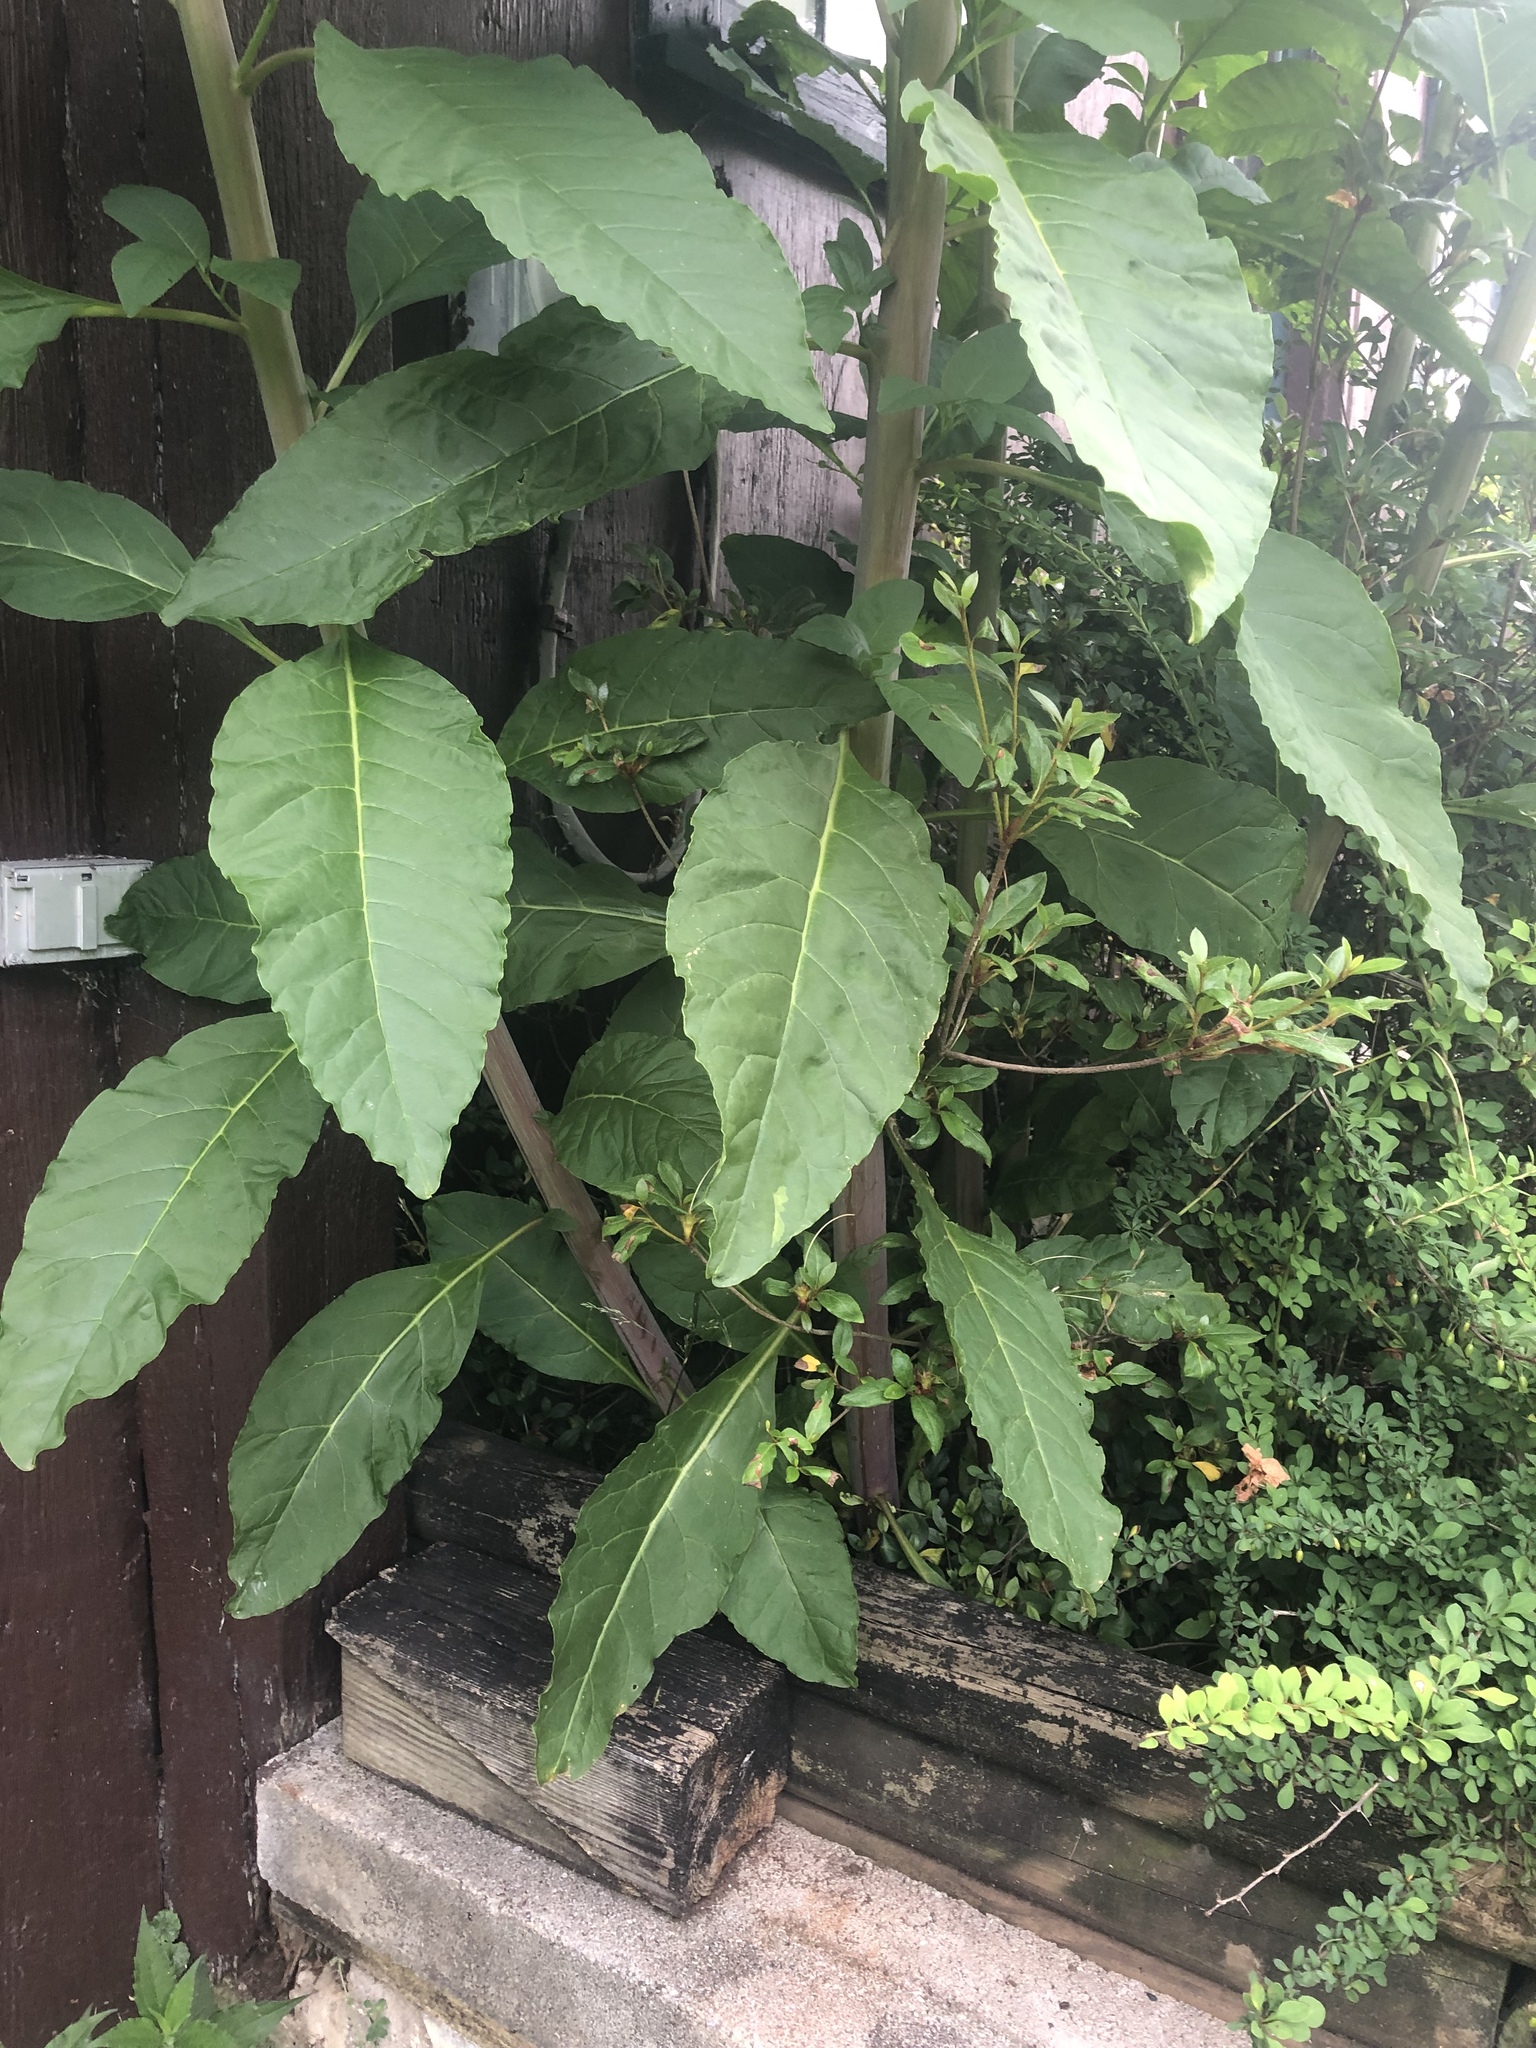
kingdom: Plantae
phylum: Tracheophyta
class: Magnoliopsida
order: Caryophyllales
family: Phytolaccaceae
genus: Phytolacca
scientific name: Phytolacca americana
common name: American pokeweed
